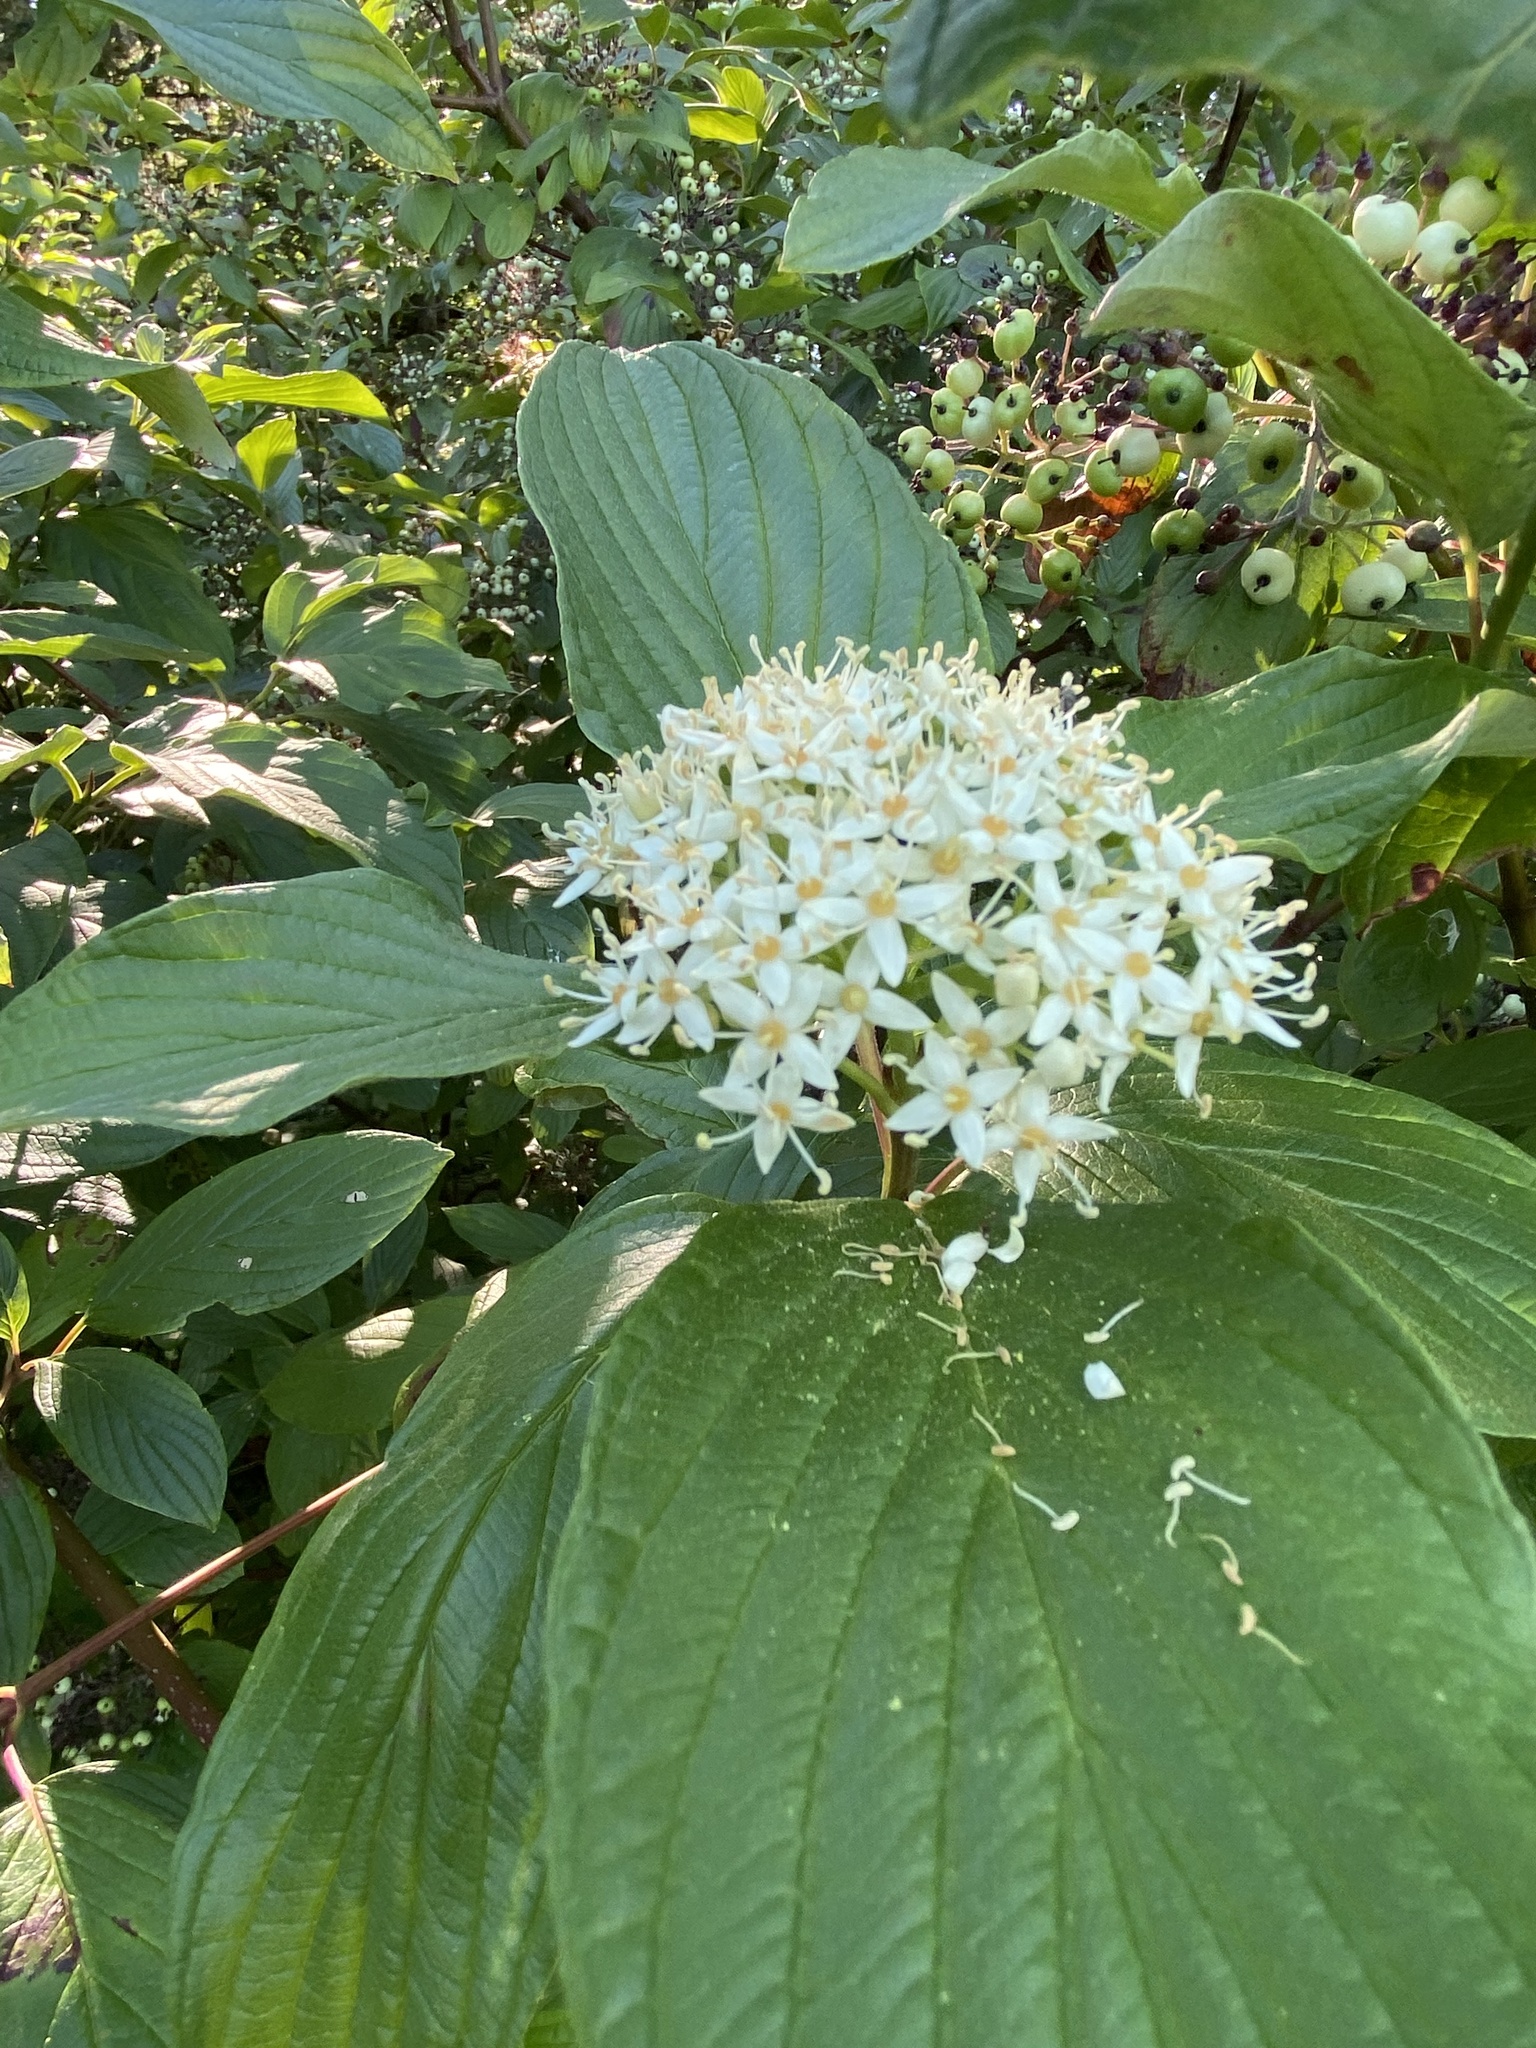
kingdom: Plantae
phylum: Tracheophyta
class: Magnoliopsida
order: Cornales
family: Cornaceae
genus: Cornus
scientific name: Cornus sericea
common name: Red-osier dogwood
